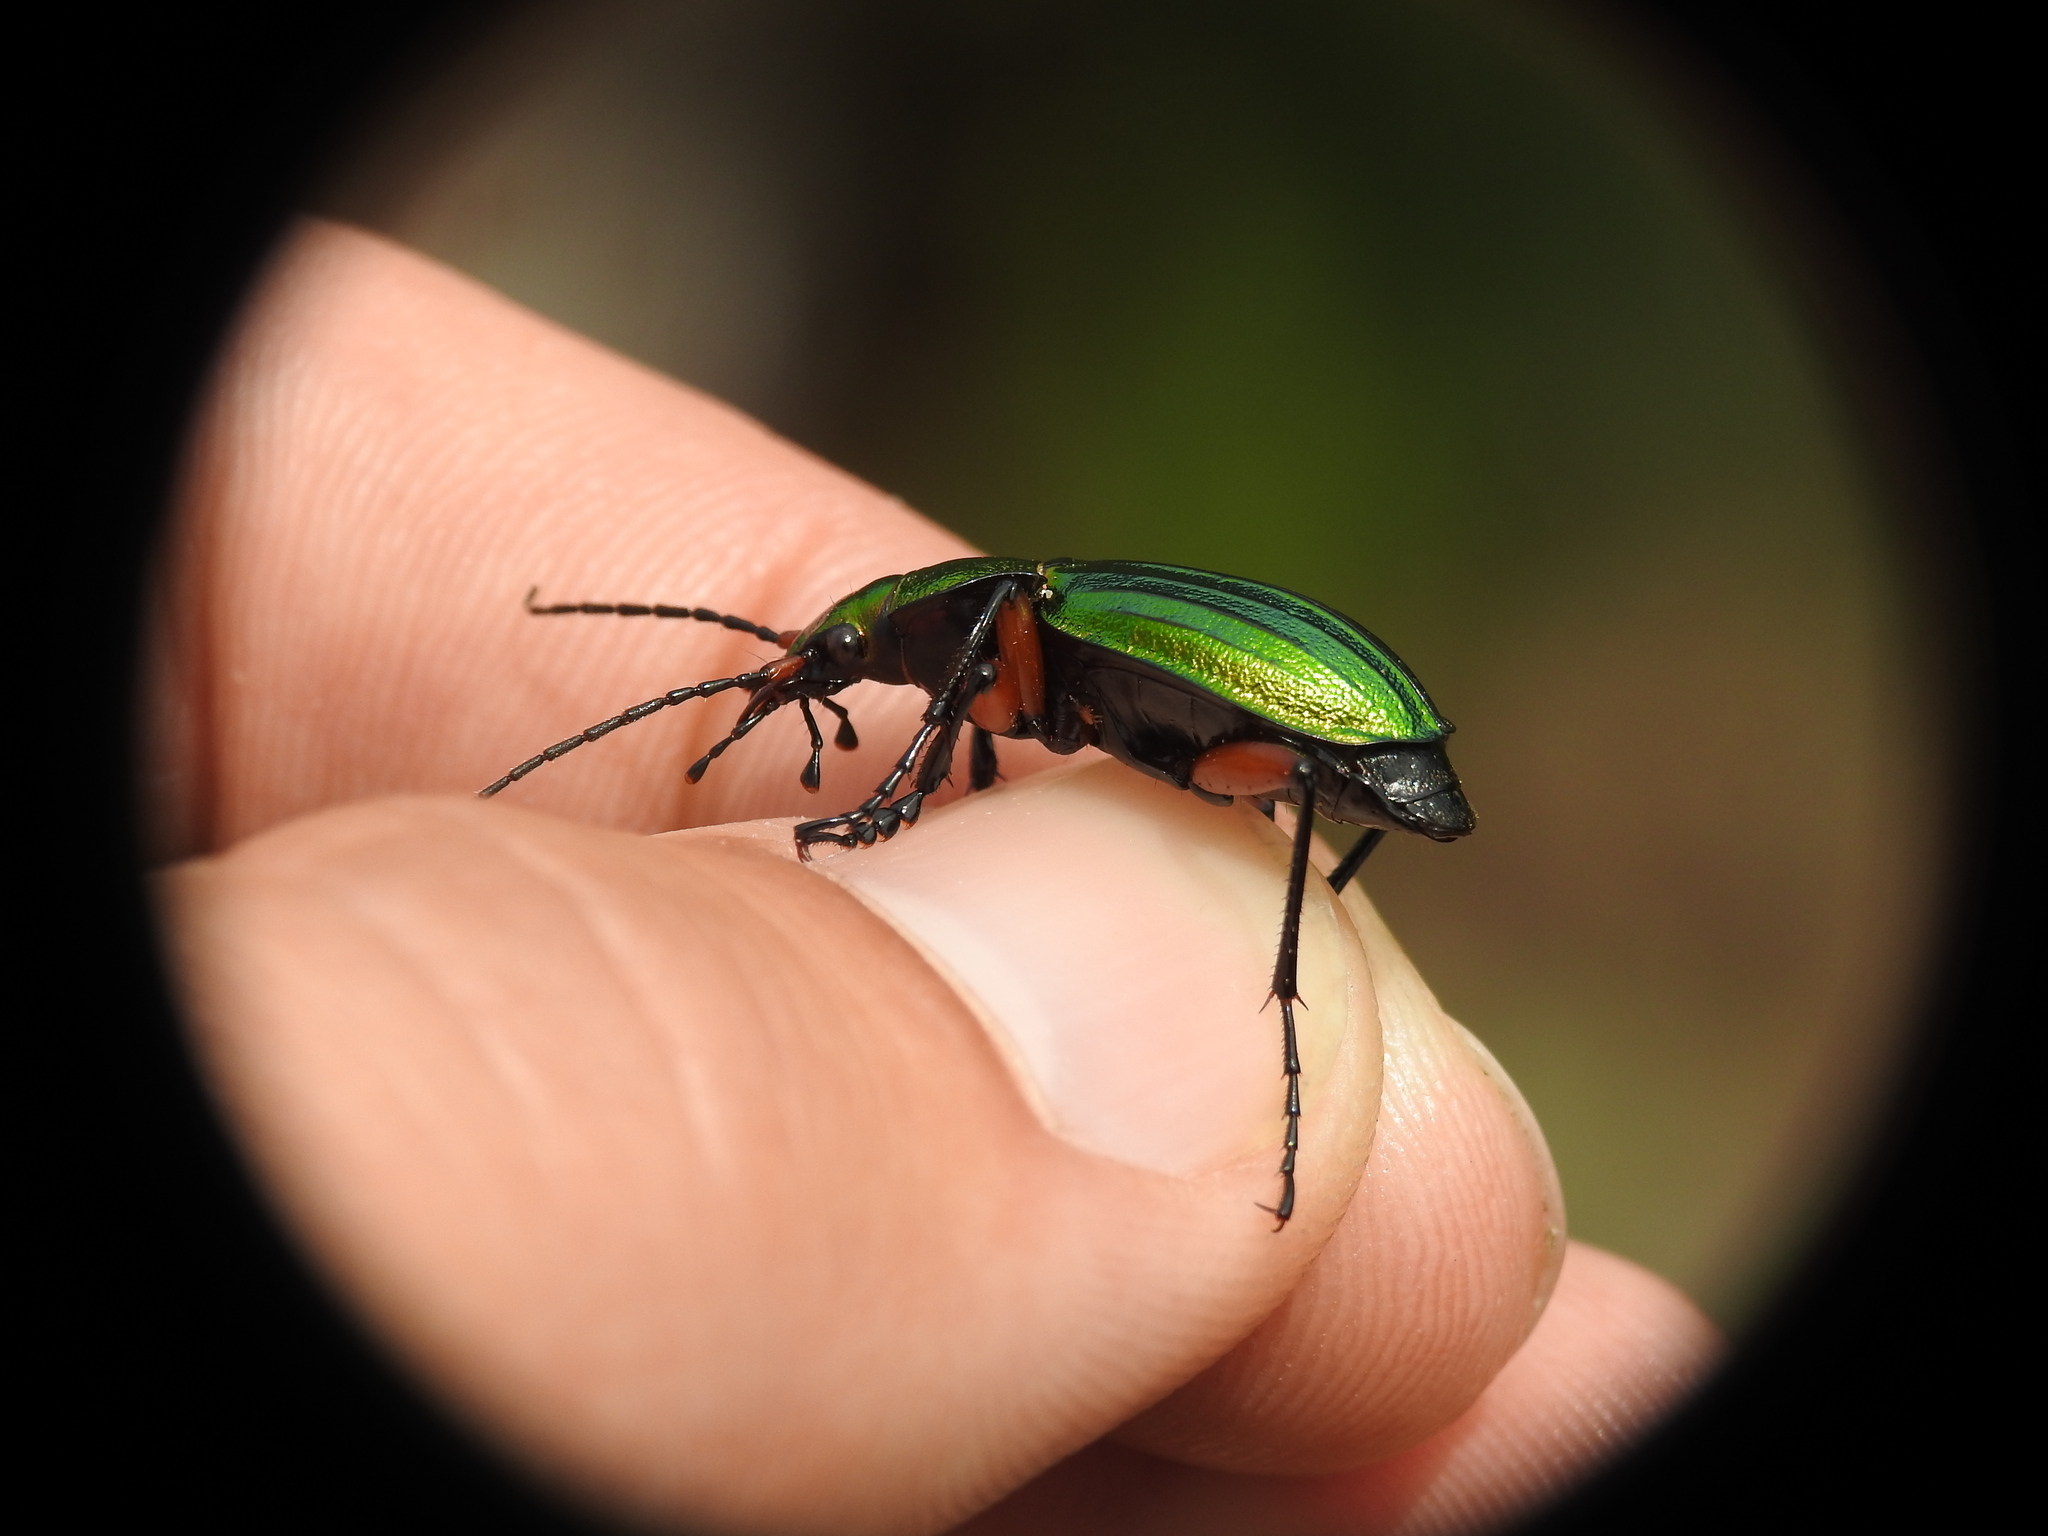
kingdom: Animalia
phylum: Arthropoda
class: Insecta
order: Coleoptera
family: Carabidae
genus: Carabus
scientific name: Carabus auronitens
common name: Carabus auronitens
